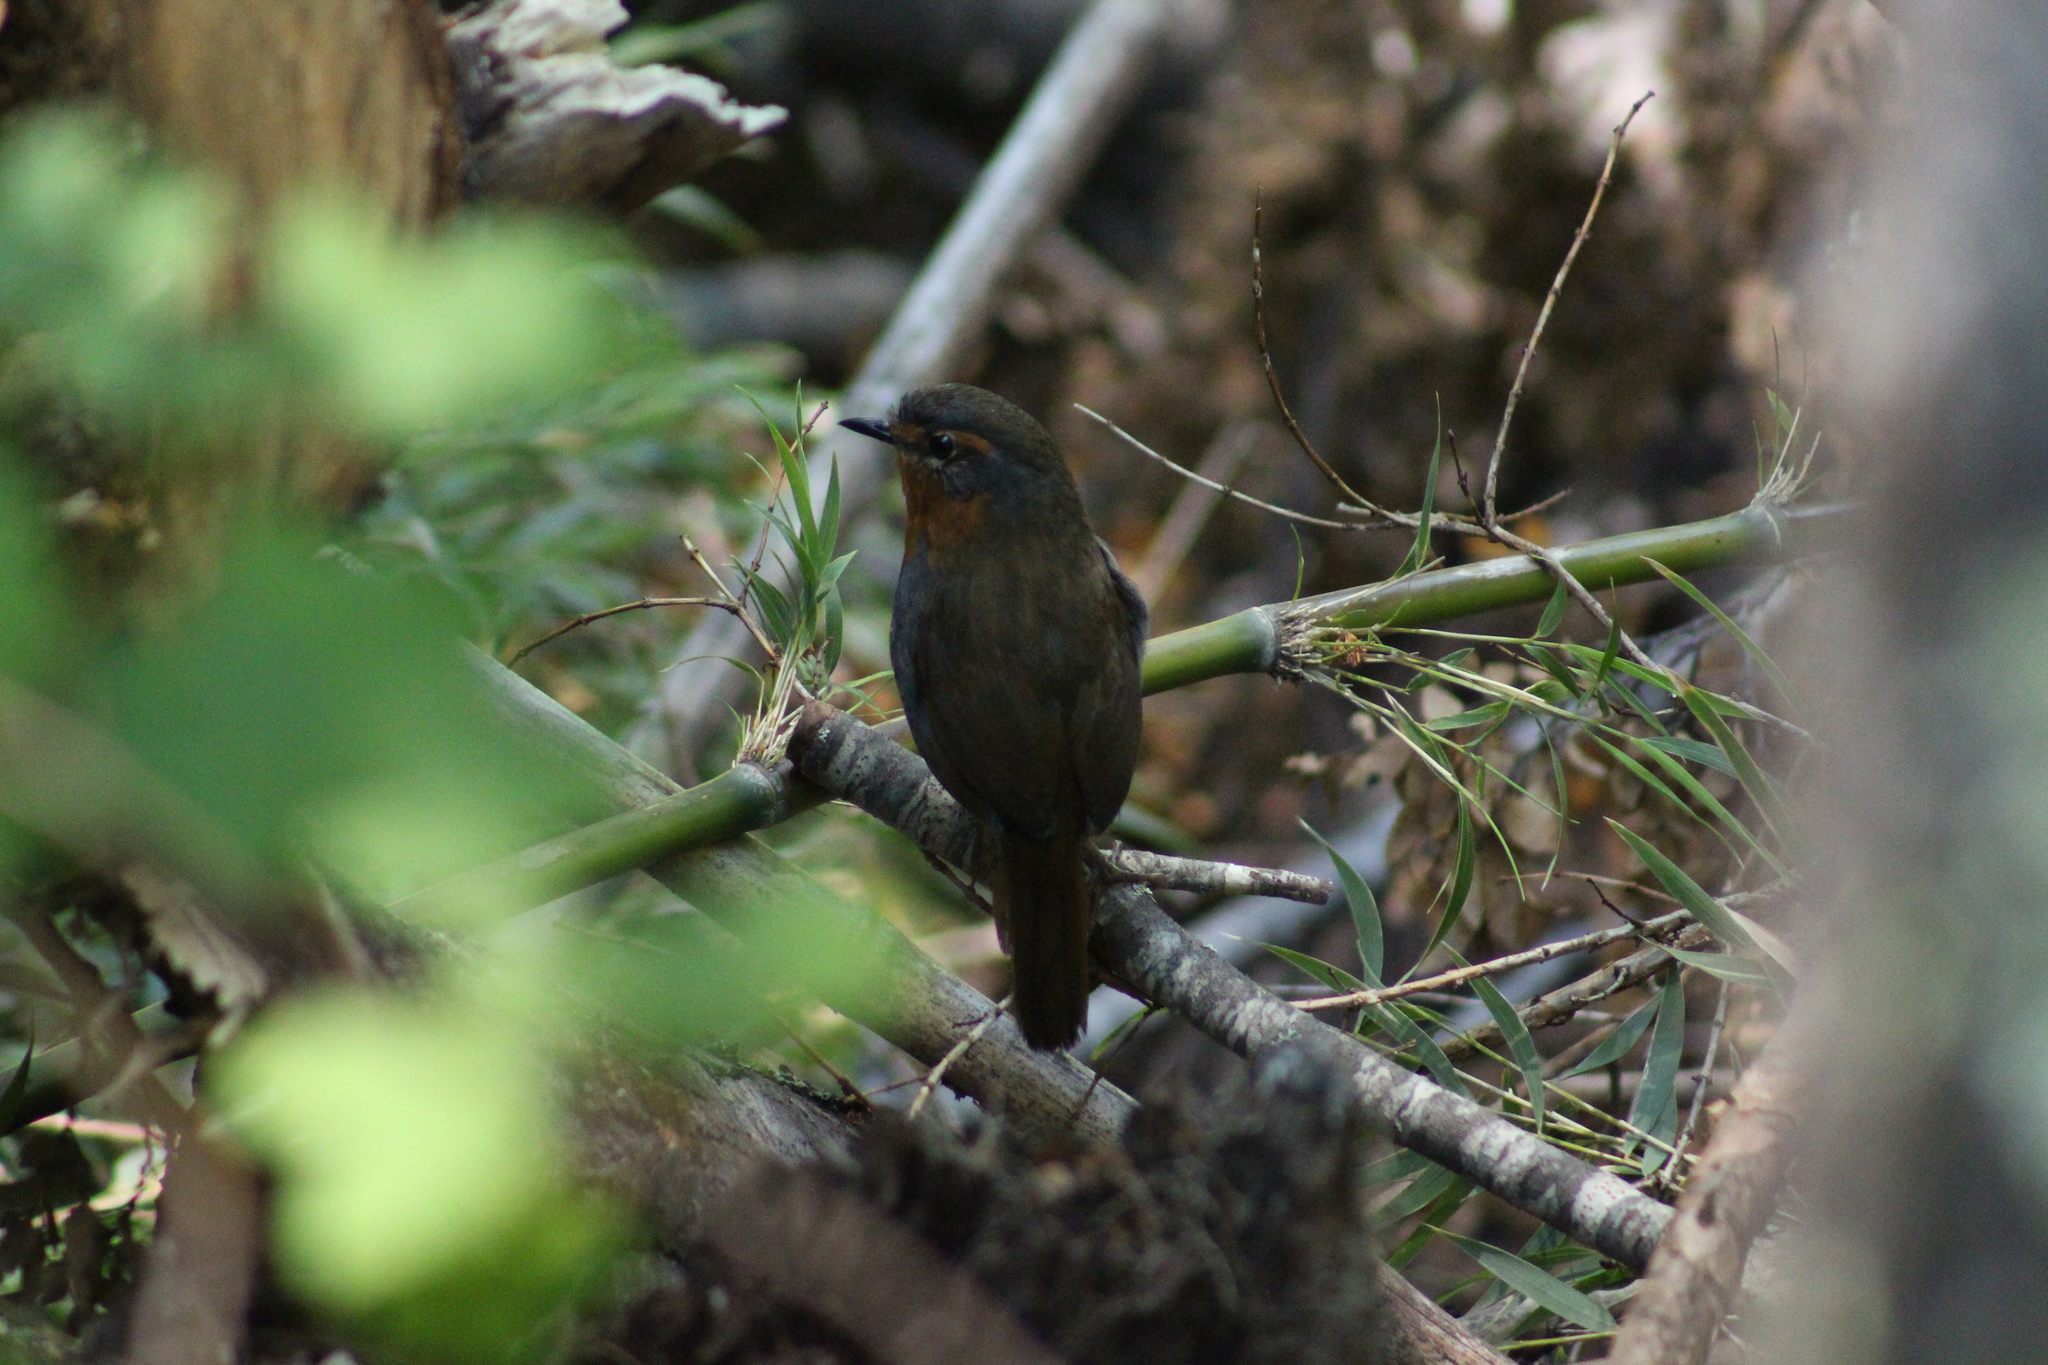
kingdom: Animalia
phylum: Chordata
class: Aves
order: Passeriformes
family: Rhinocryptidae
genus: Scelorchilus
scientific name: Scelorchilus rubecula
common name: Chucao tapaculo
